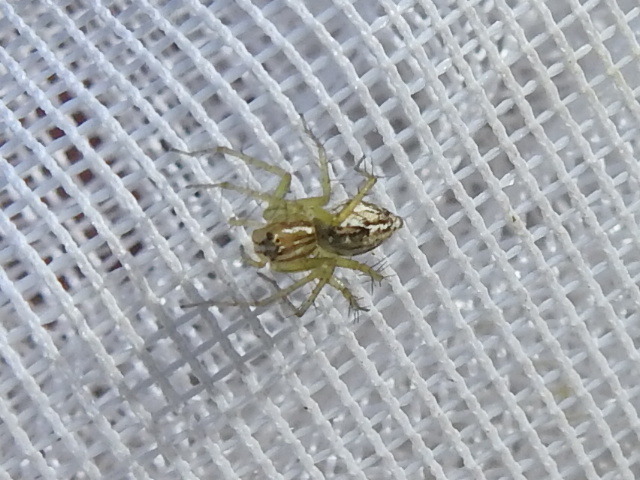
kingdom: Animalia
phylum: Arthropoda
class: Arachnida
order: Araneae
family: Oxyopidae
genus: Oxyopes
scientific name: Oxyopes salticus
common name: Lynx spiders
